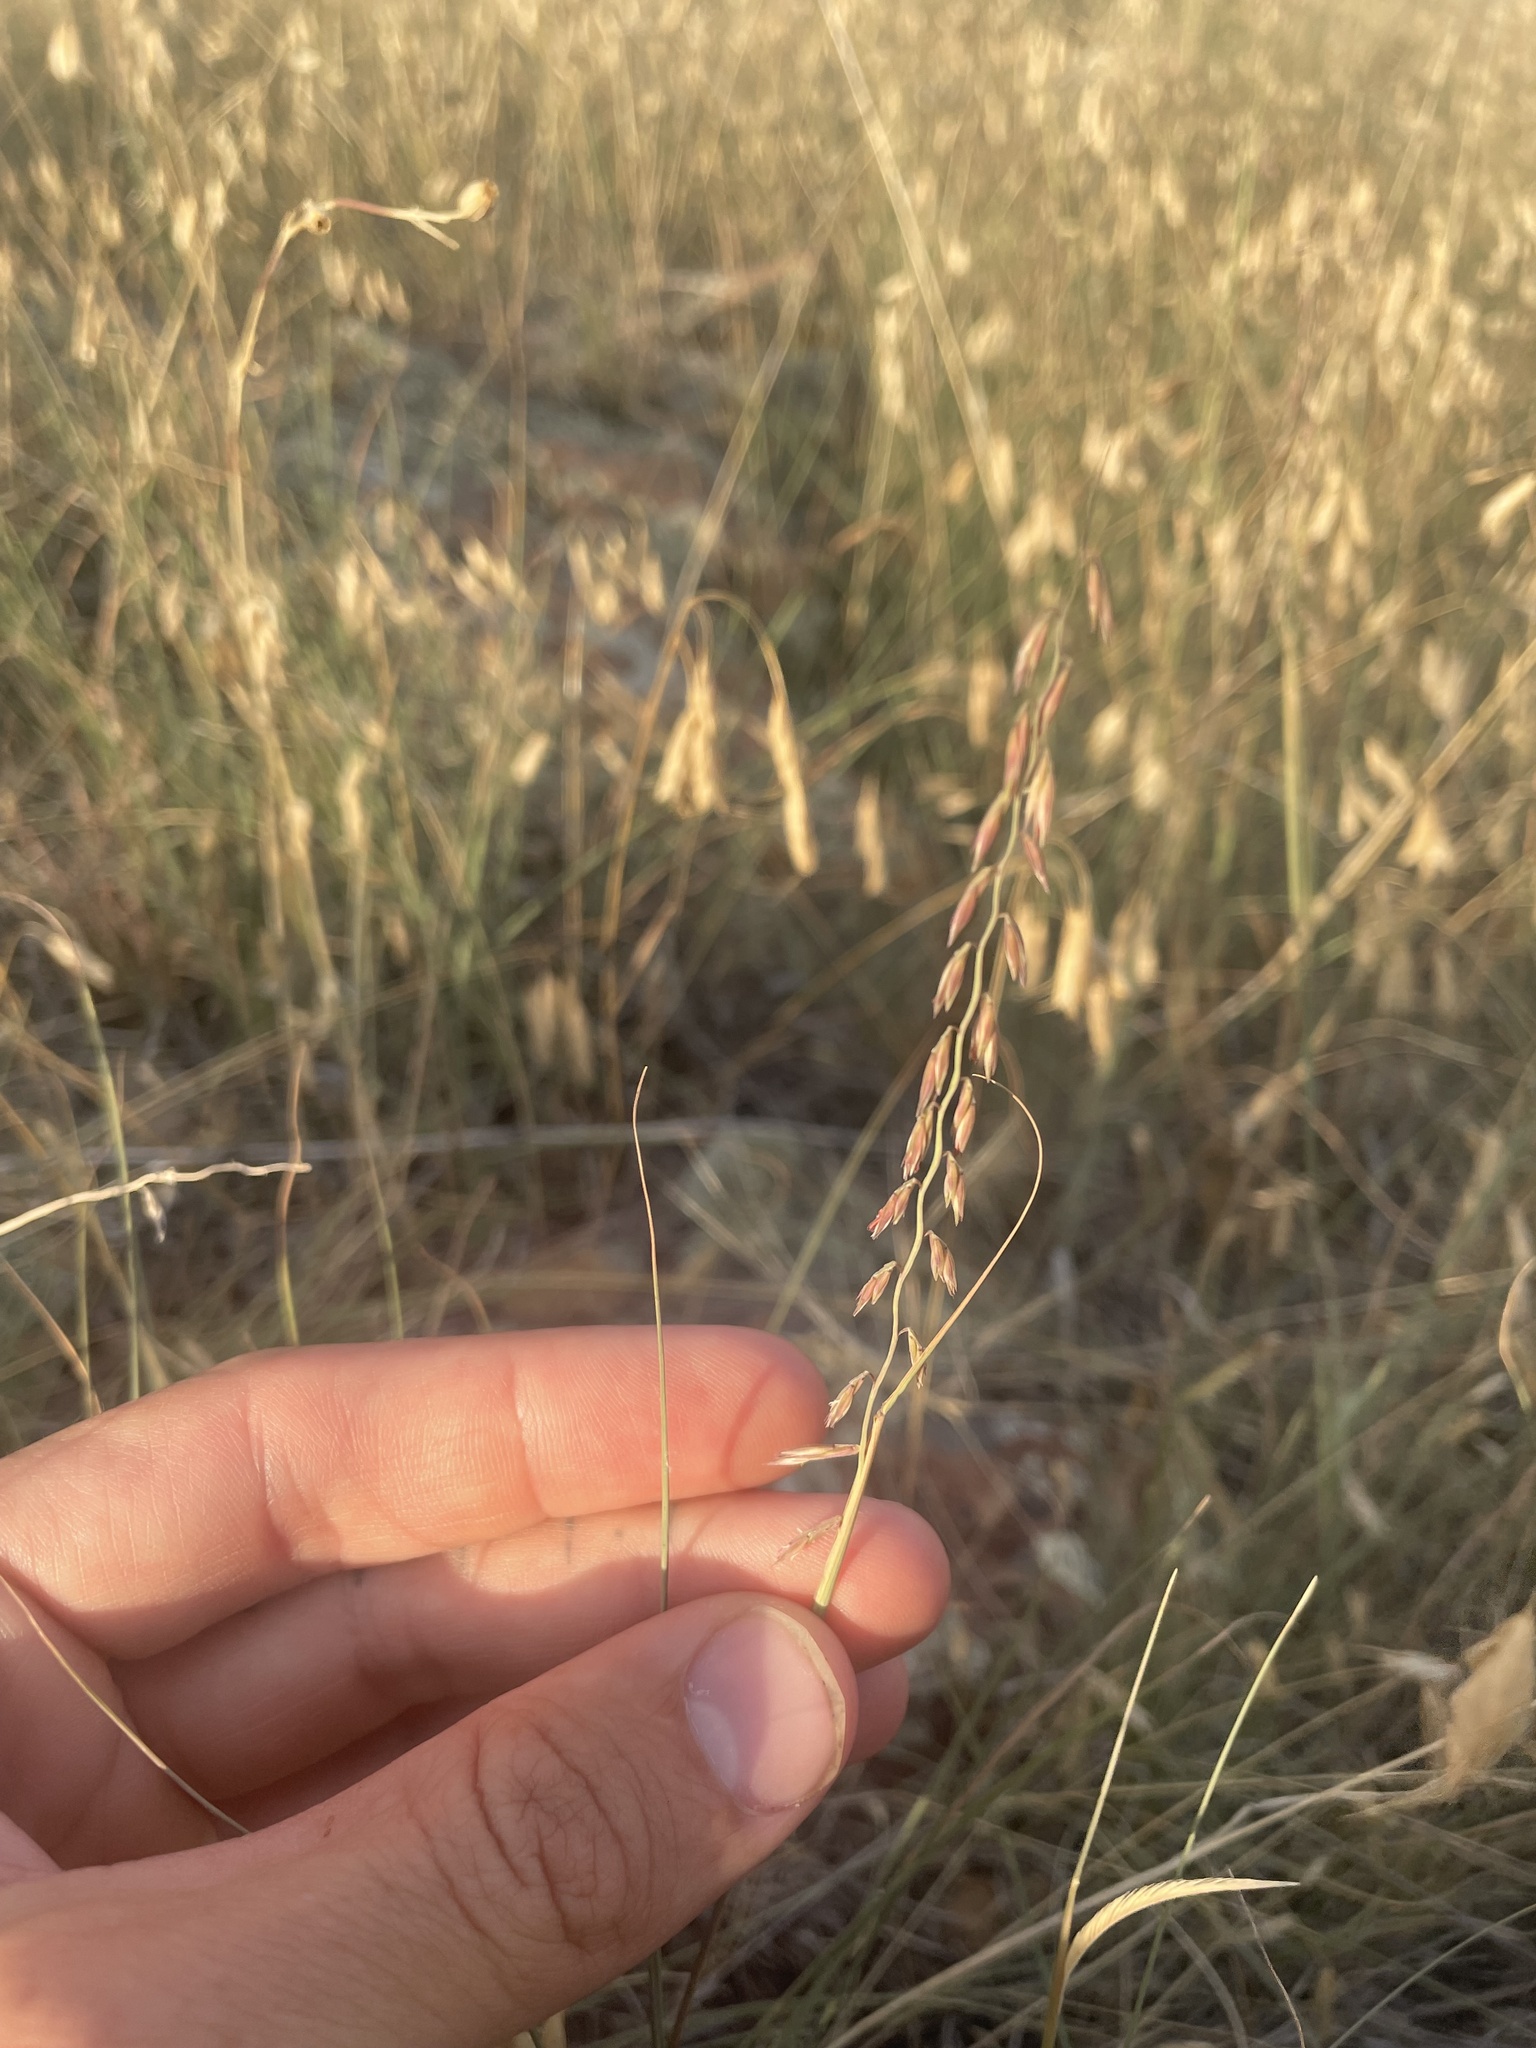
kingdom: Plantae
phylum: Tracheophyta
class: Liliopsida
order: Poales
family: Poaceae
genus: Bouteloua
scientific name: Bouteloua curtipendula
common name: Side-oats grama
